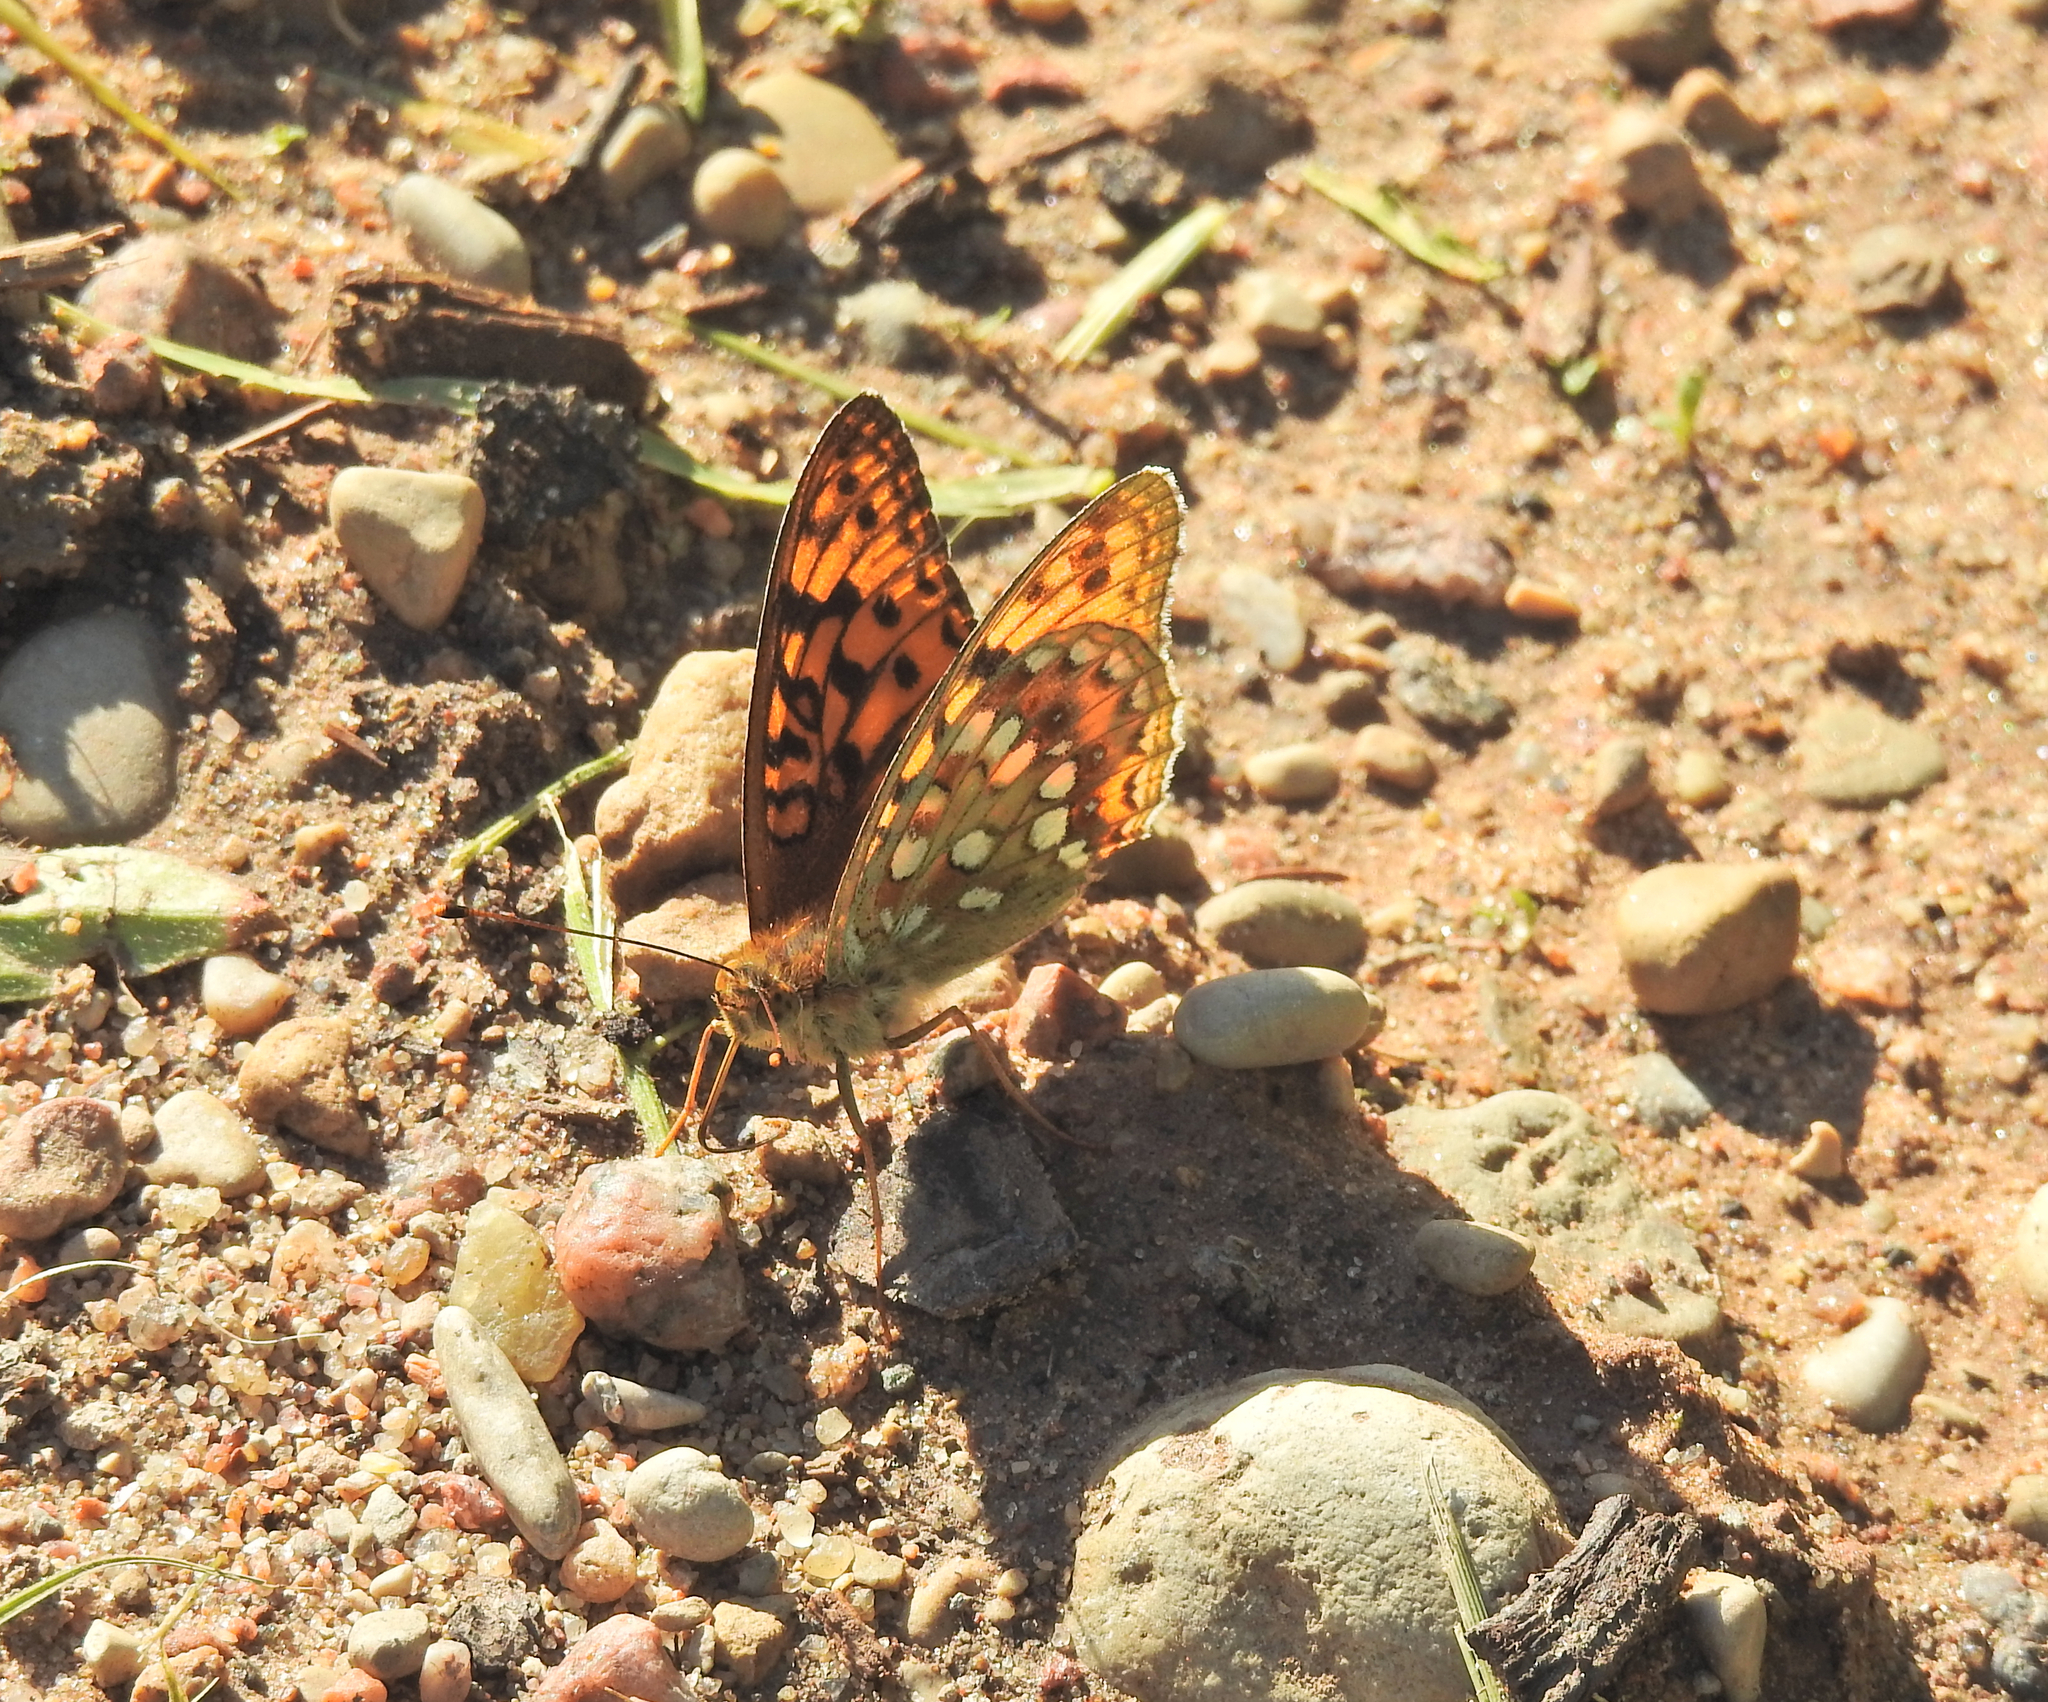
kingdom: Animalia
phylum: Arthropoda
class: Insecta
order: Lepidoptera
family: Nymphalidae
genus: Fabriciana
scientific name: Fabriciana adippe
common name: High brown fritillary
